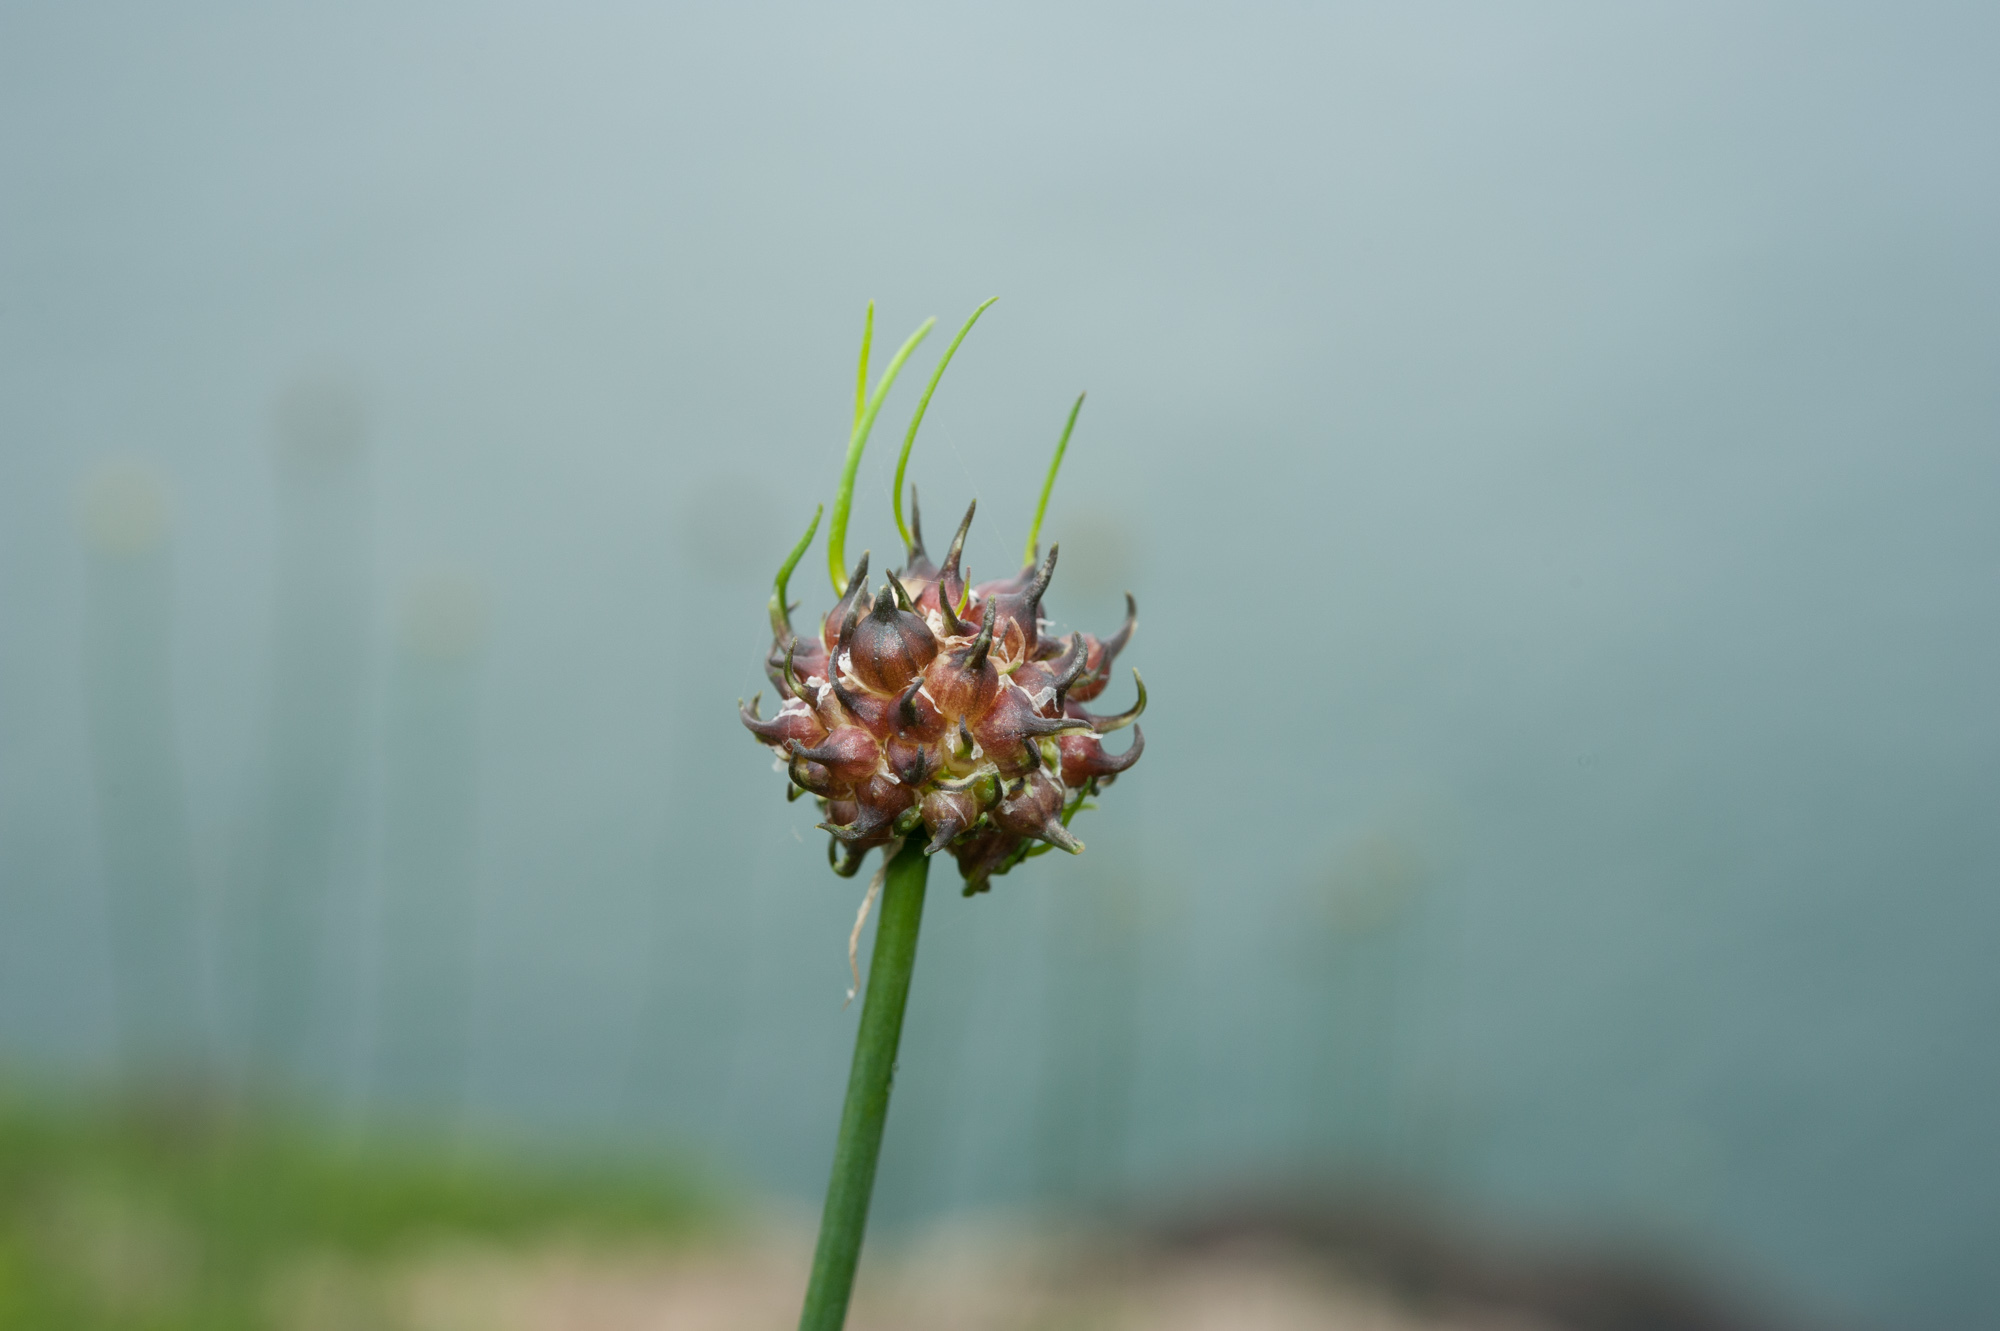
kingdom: Plantae
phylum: Tracheophyta
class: Liliopsida
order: Asparagales
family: Amaryllidaceae
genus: Allium
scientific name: Allium macrostemon
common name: Chinese garlic
